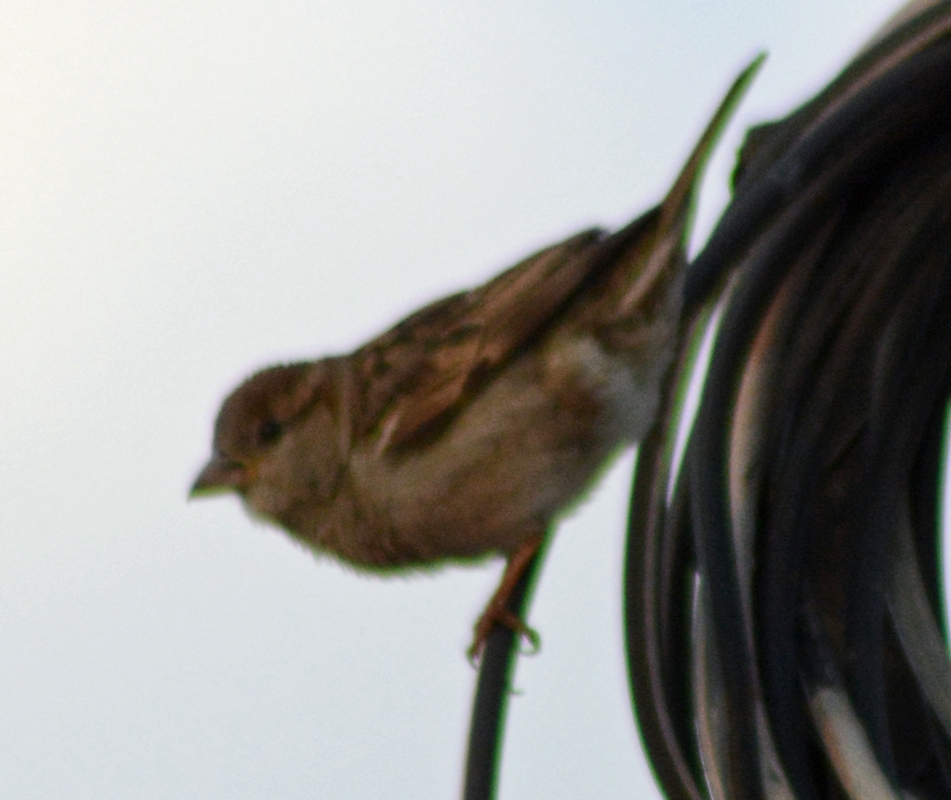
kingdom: Animalia
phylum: Chordata
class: Aves
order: Passeriformes
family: Passeridae
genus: Passer
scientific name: Passer domesticus
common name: House sparrow
